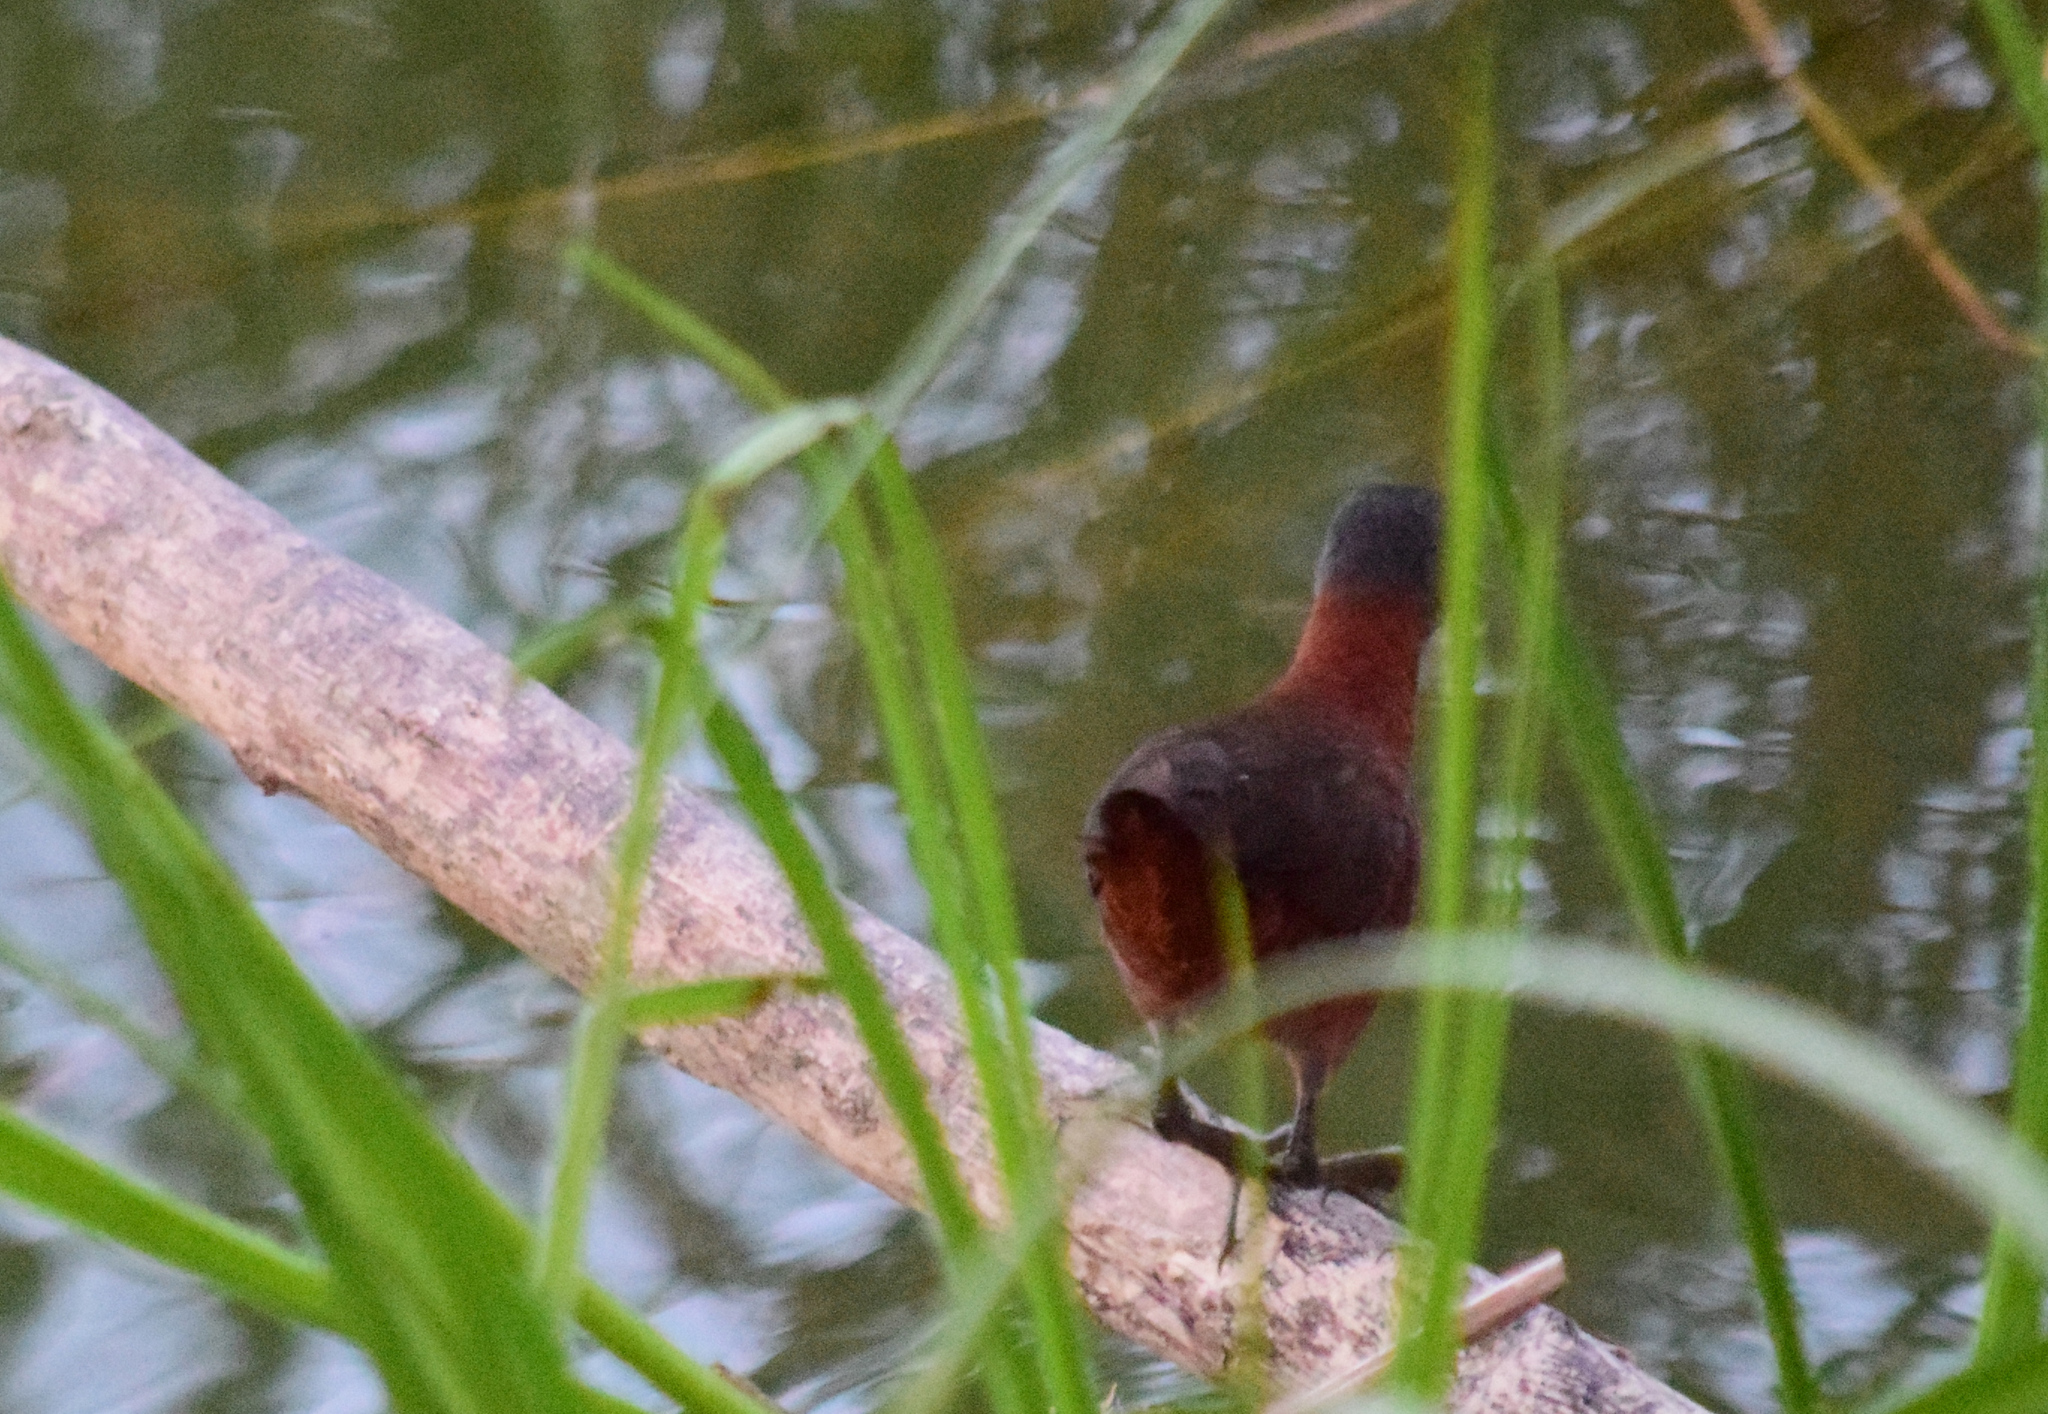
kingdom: Animalia
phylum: Chordata
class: Aves
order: Gruiformes
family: Rallidae
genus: Laterallus
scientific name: Laterallus ruber
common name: Ruddy crake
